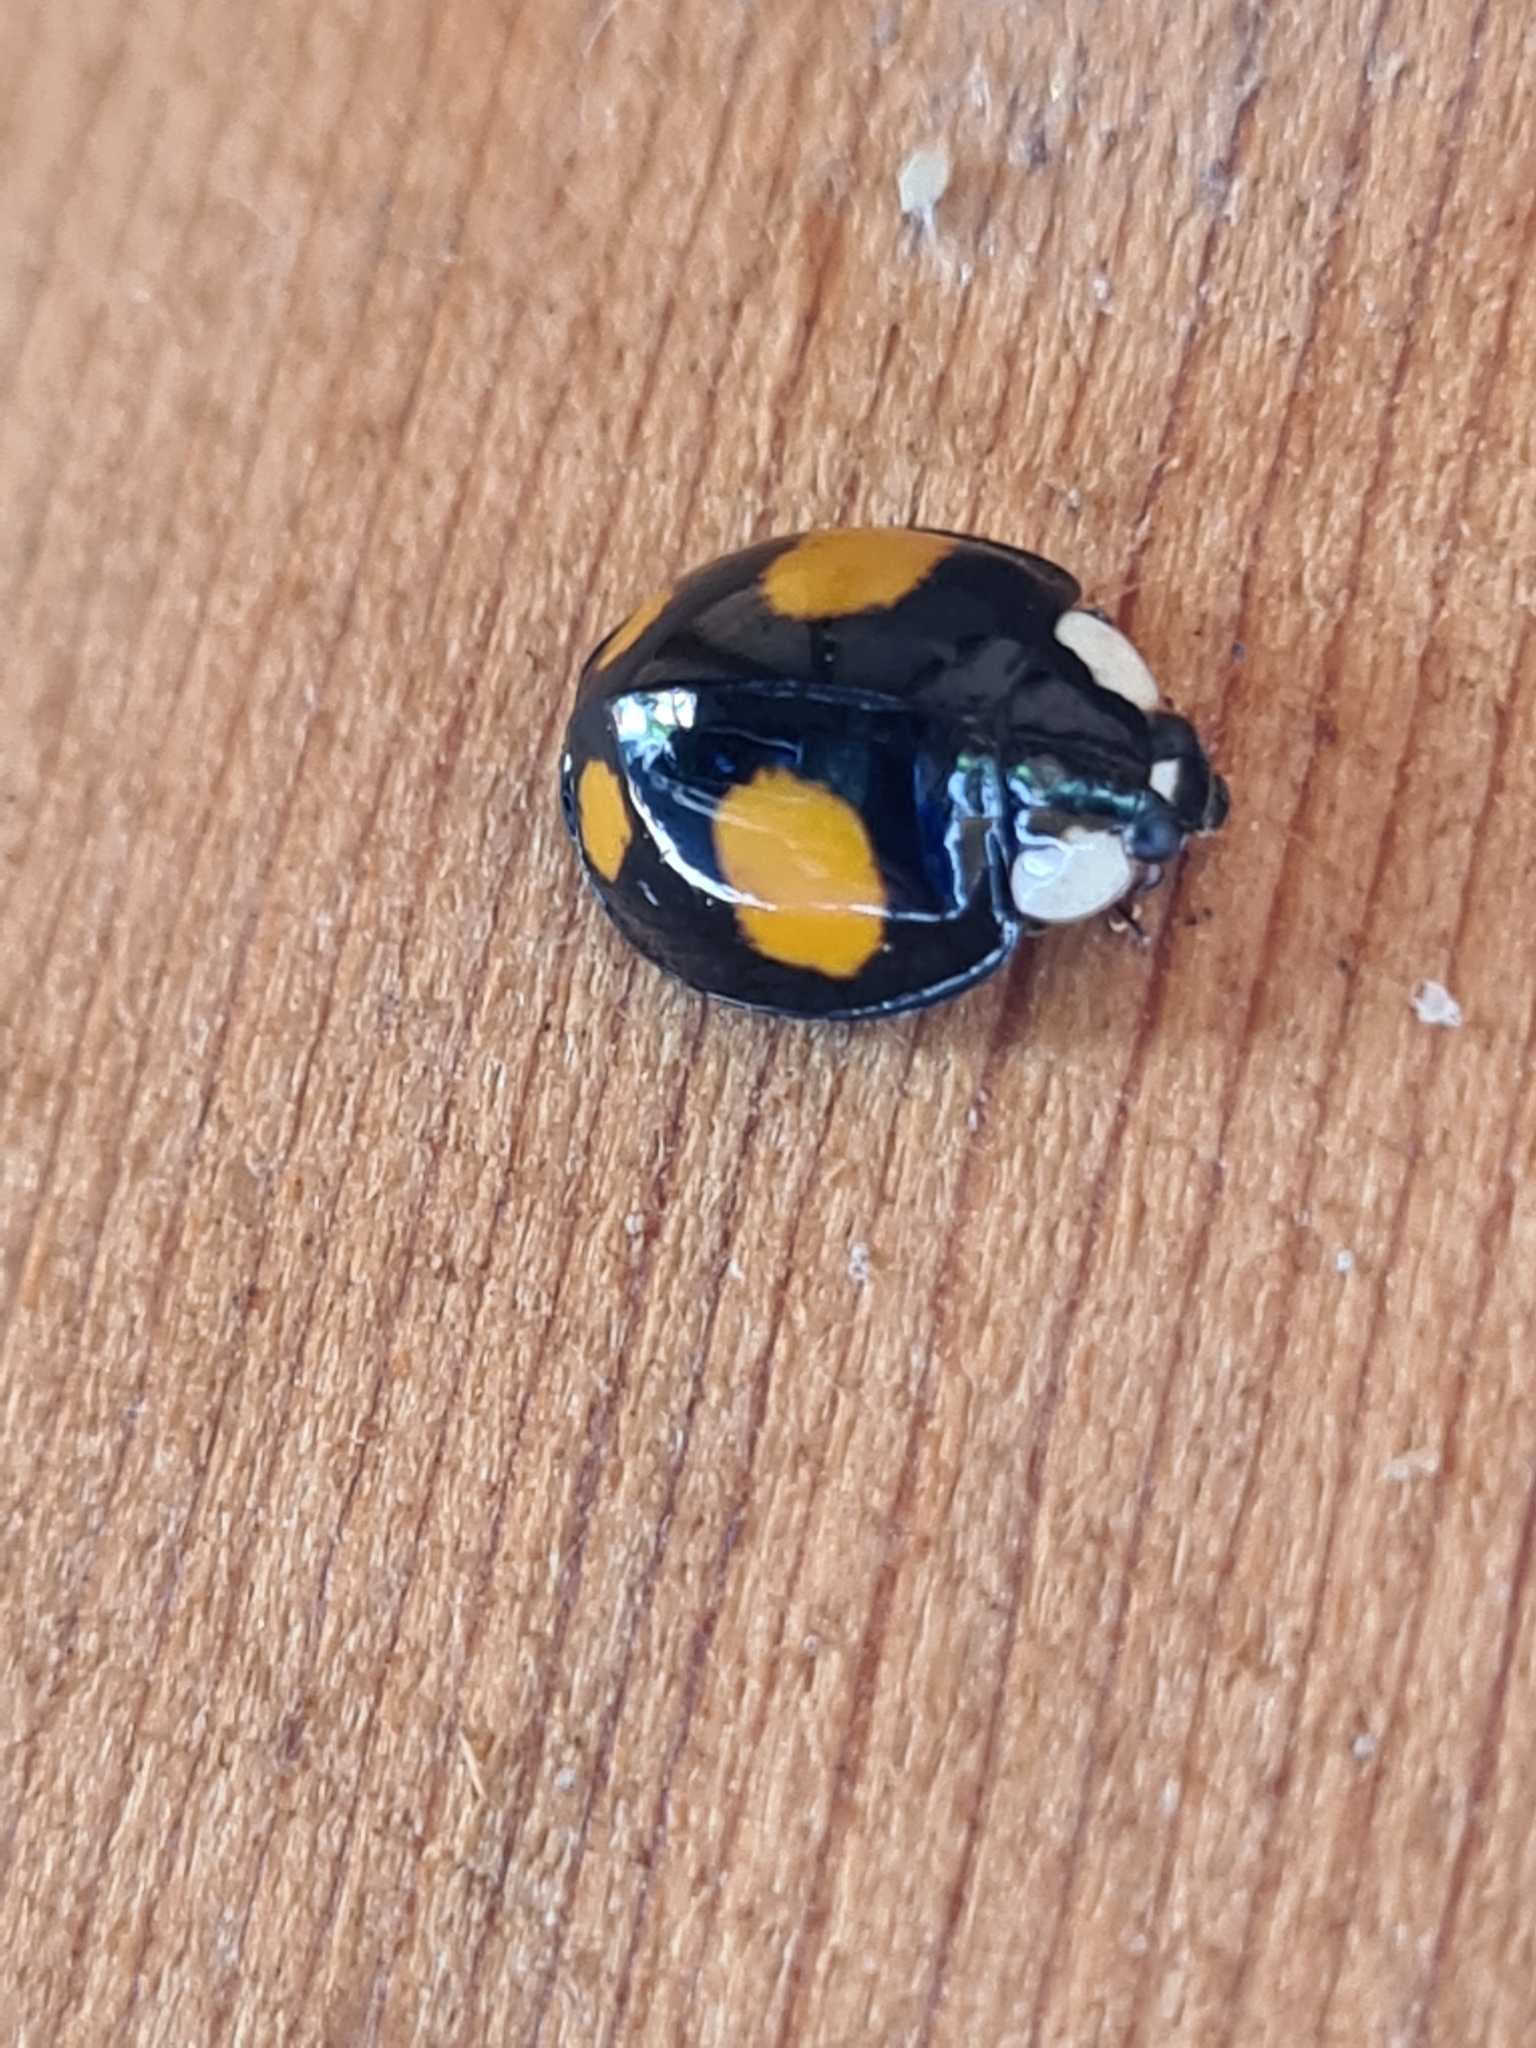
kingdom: Animalia
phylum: Arthropoda
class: Insecta
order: Coleoptera
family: Coccinellidae
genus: Harmonia
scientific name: Harmonia axyridis
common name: Harlequin ladybird
